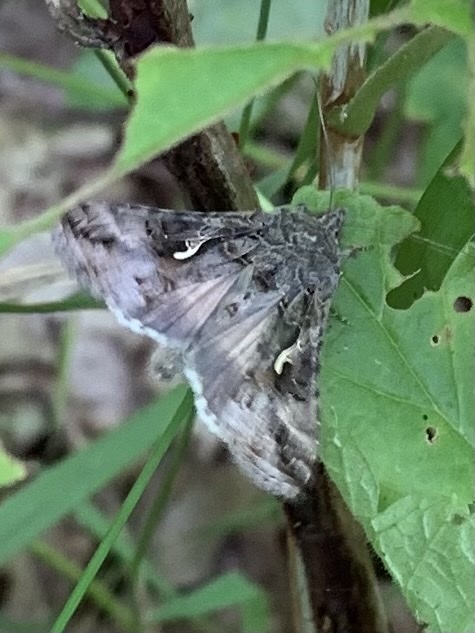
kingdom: Animalia
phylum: Arthropoda
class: Insecta
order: Lepidoptera
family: Noctuidae
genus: Autographa
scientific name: Autographa gamma
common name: Silver y
